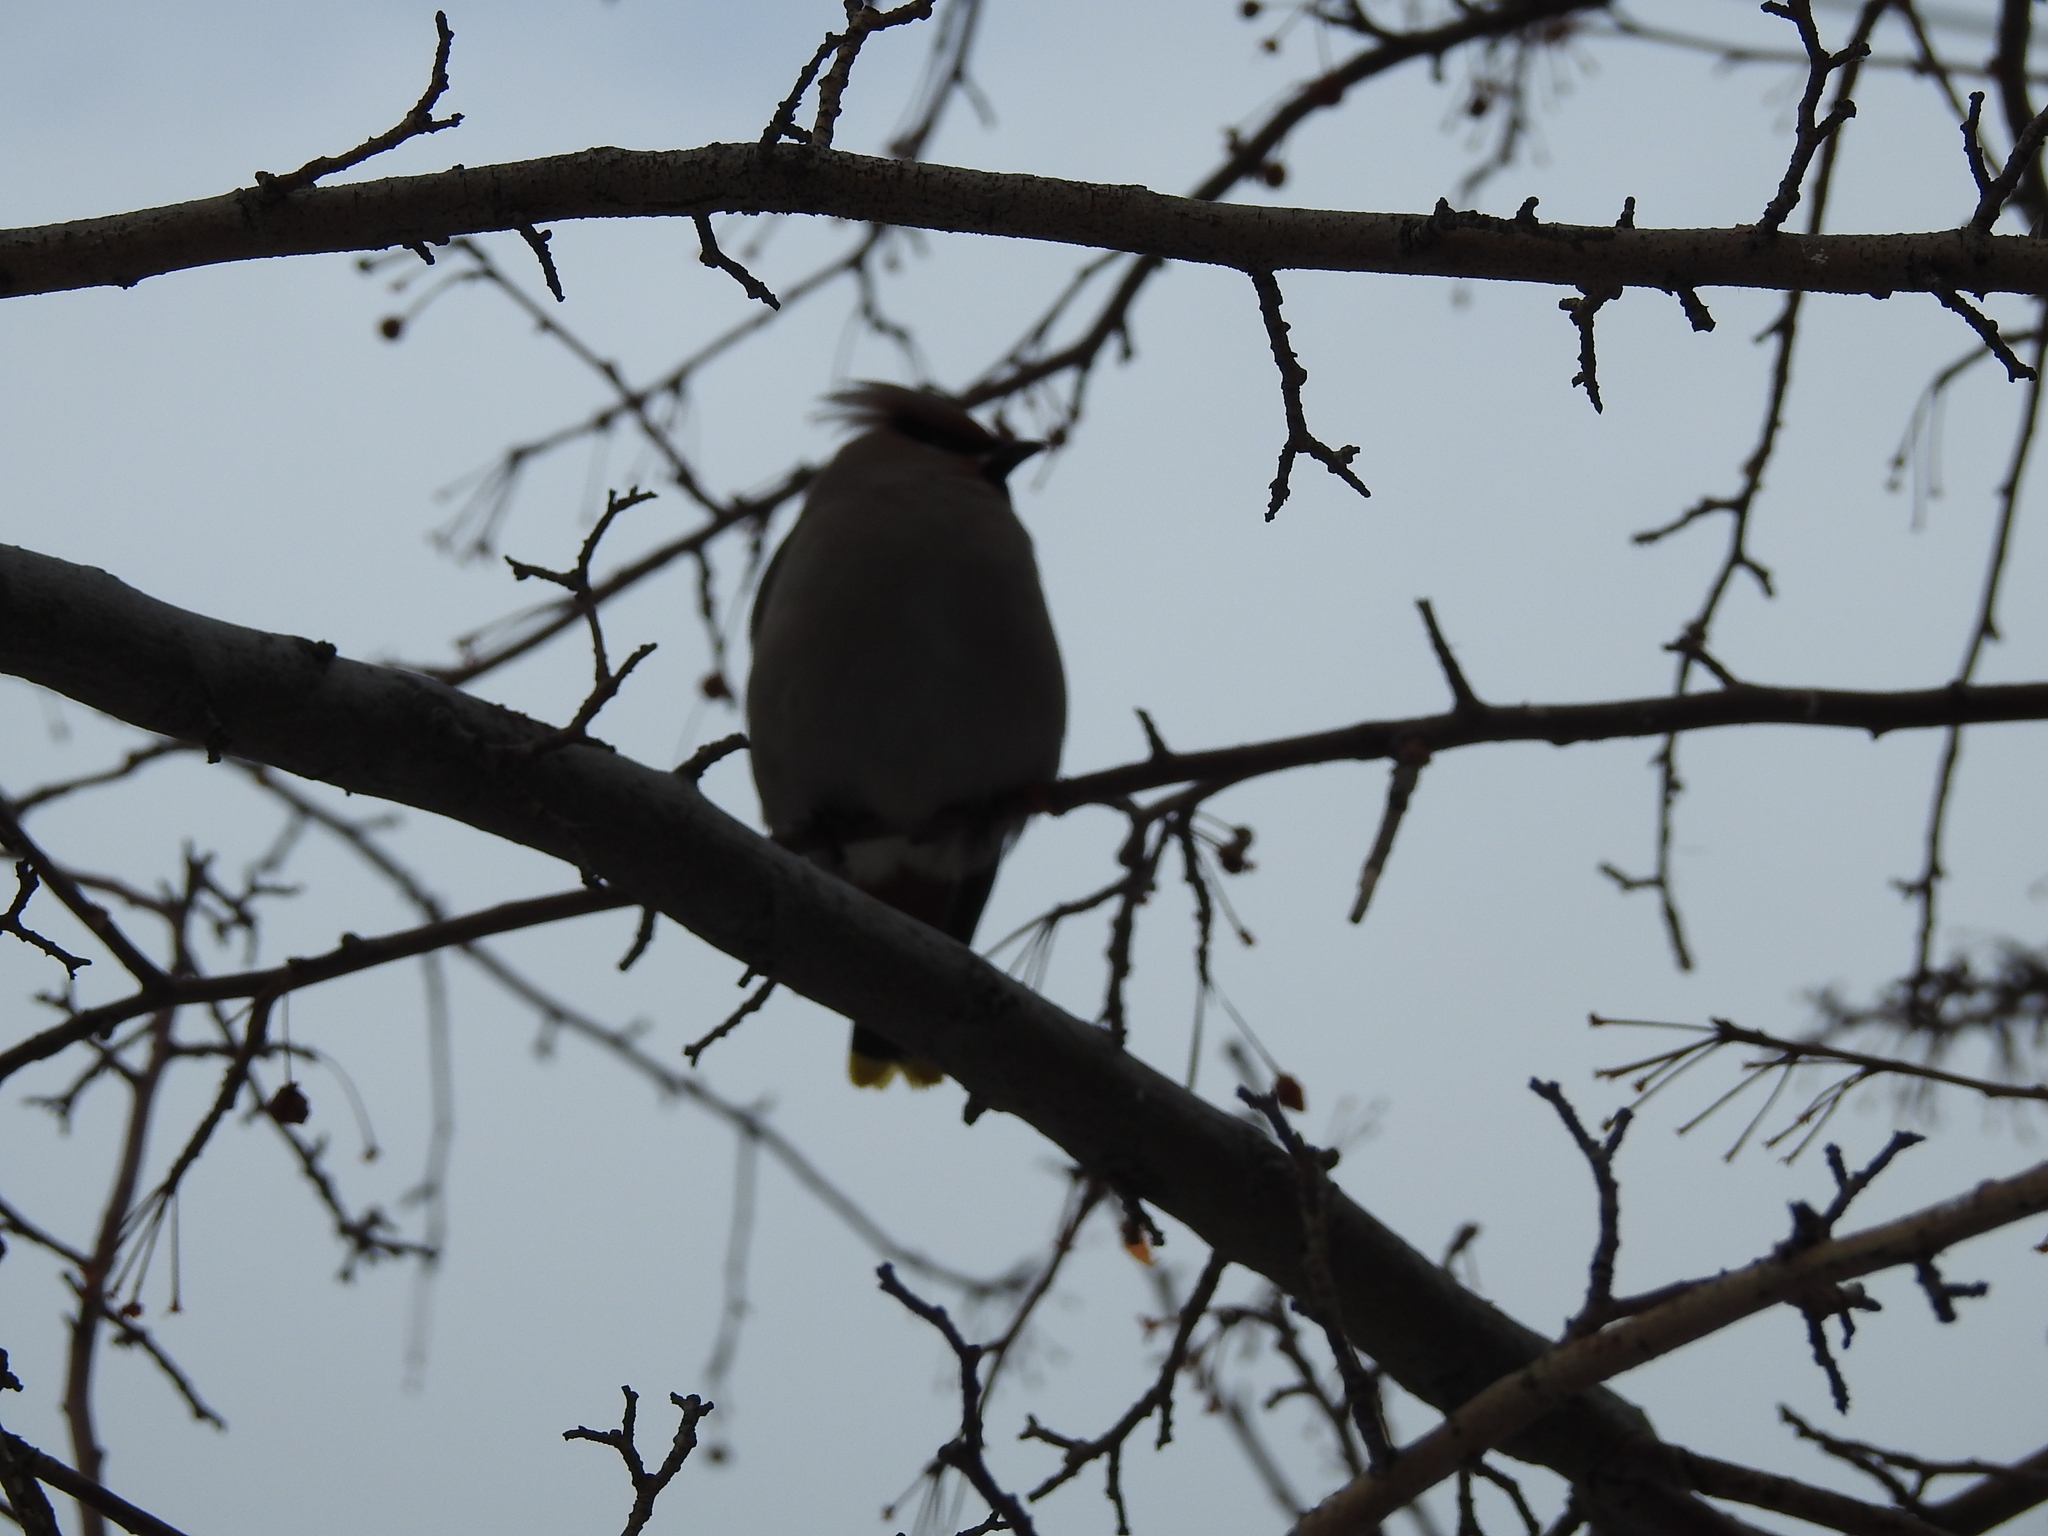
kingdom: Animalia
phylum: Chordata
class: Aves
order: Passeriformes
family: Bombycillidae
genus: Bombycilla
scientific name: Bombycilla garrulus
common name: Bohemian waxwing
